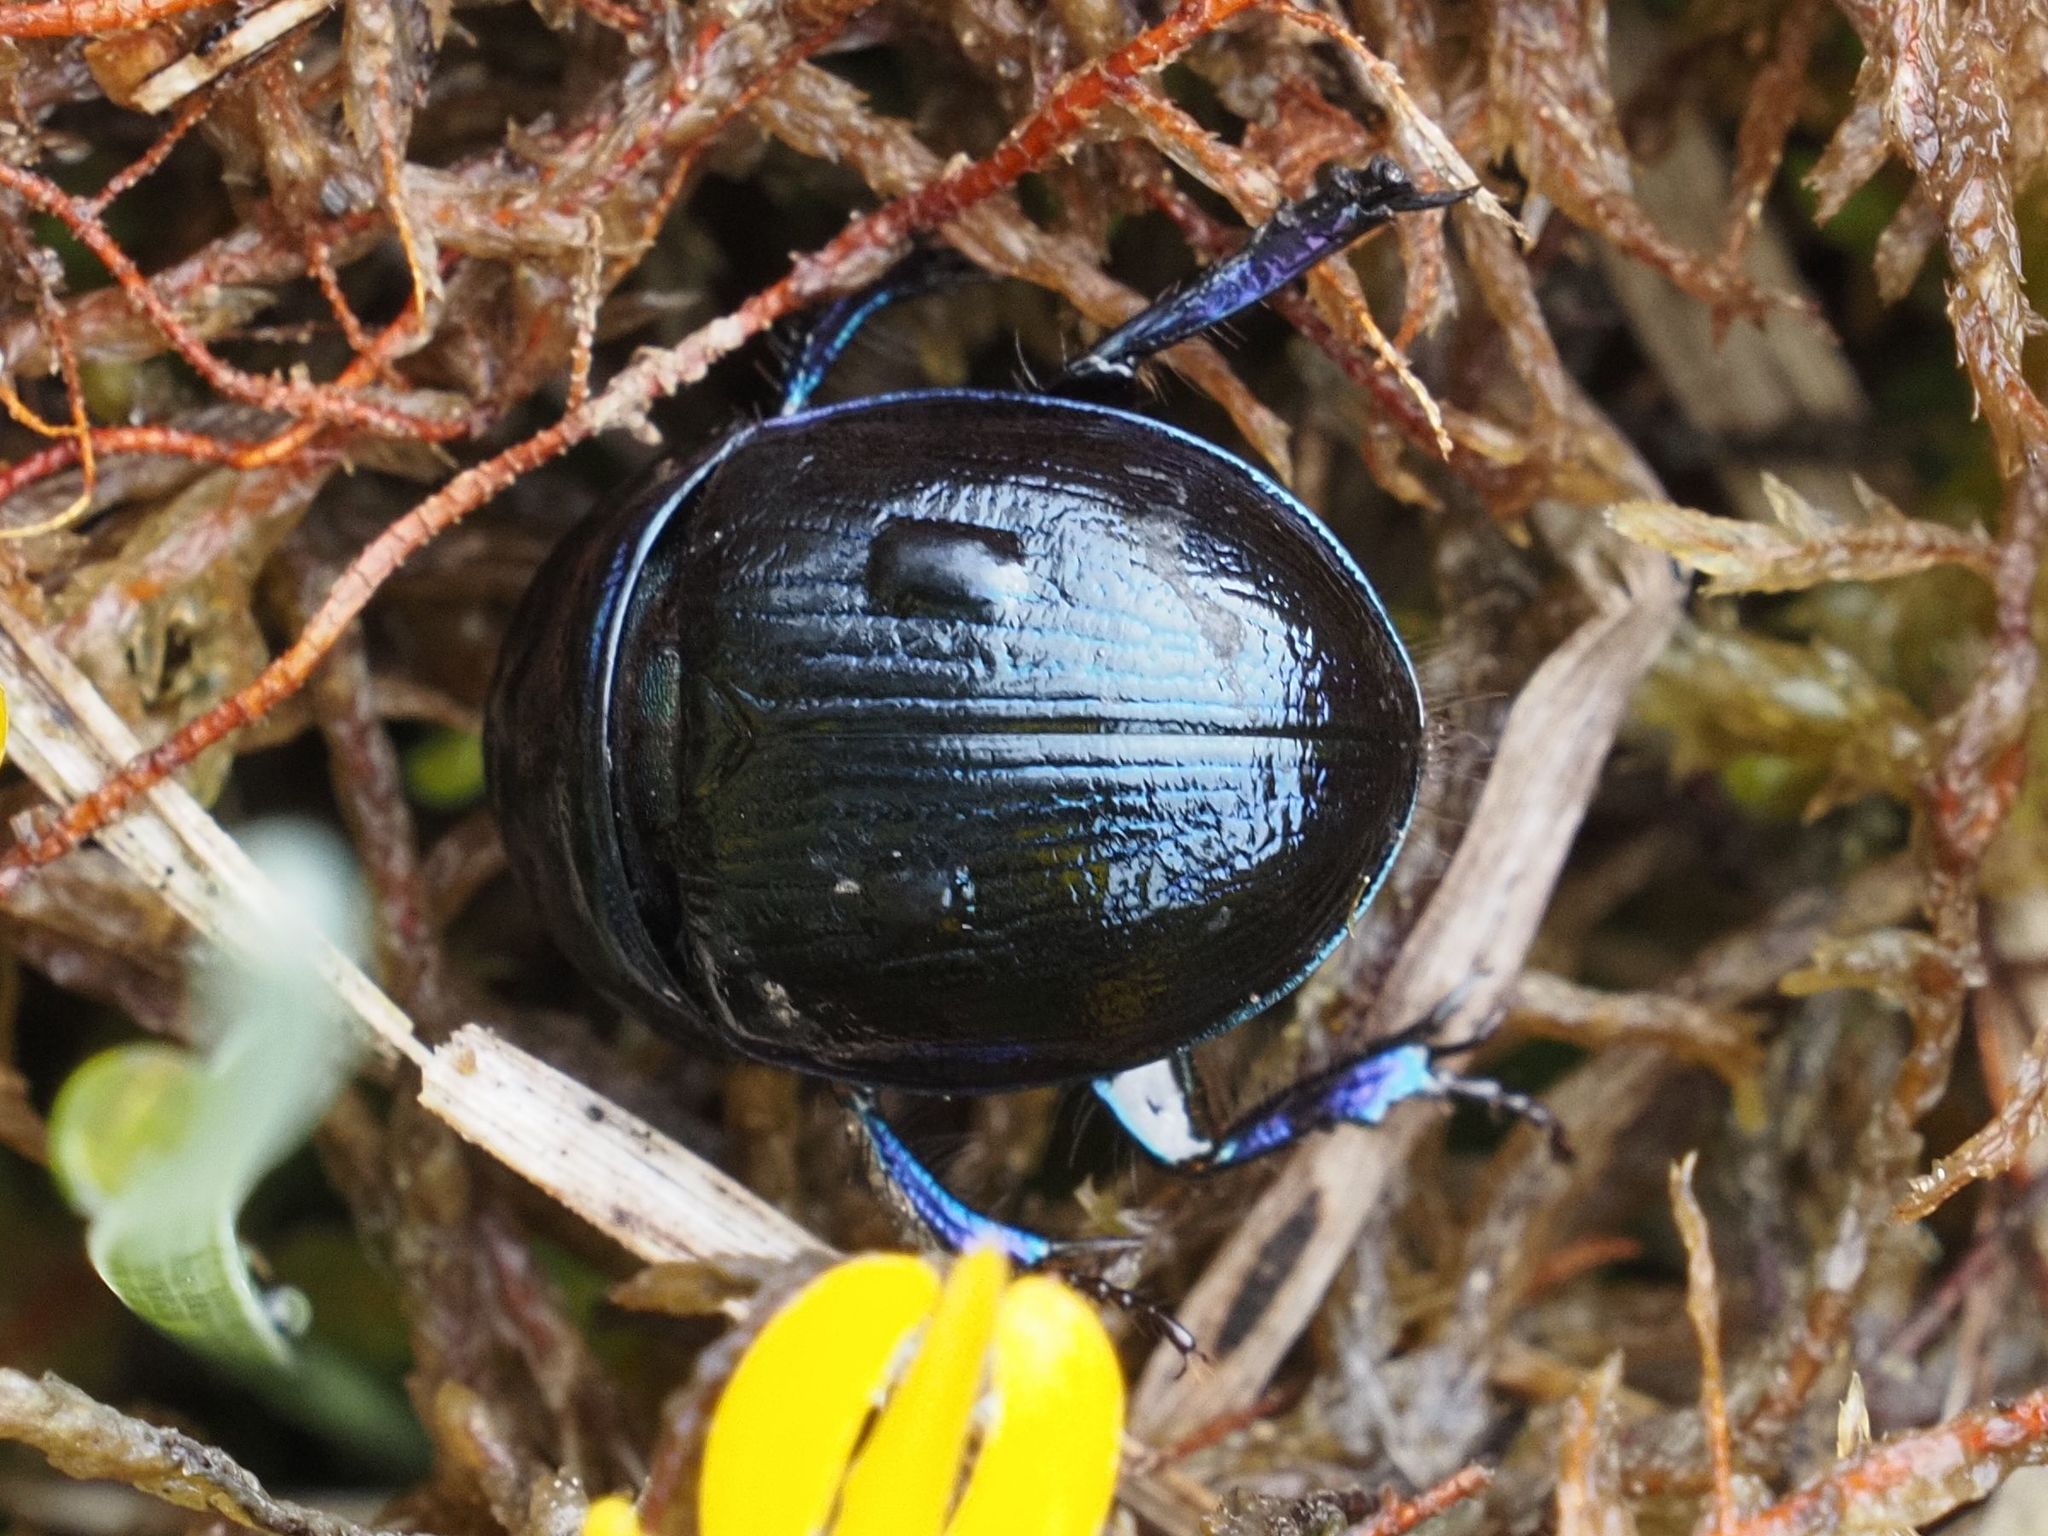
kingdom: Animalia
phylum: Arthropoda
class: Insecta
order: Coleoptera
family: Geotrupidae
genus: Anoplotrupes
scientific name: Anoplotrupes stercorosus
